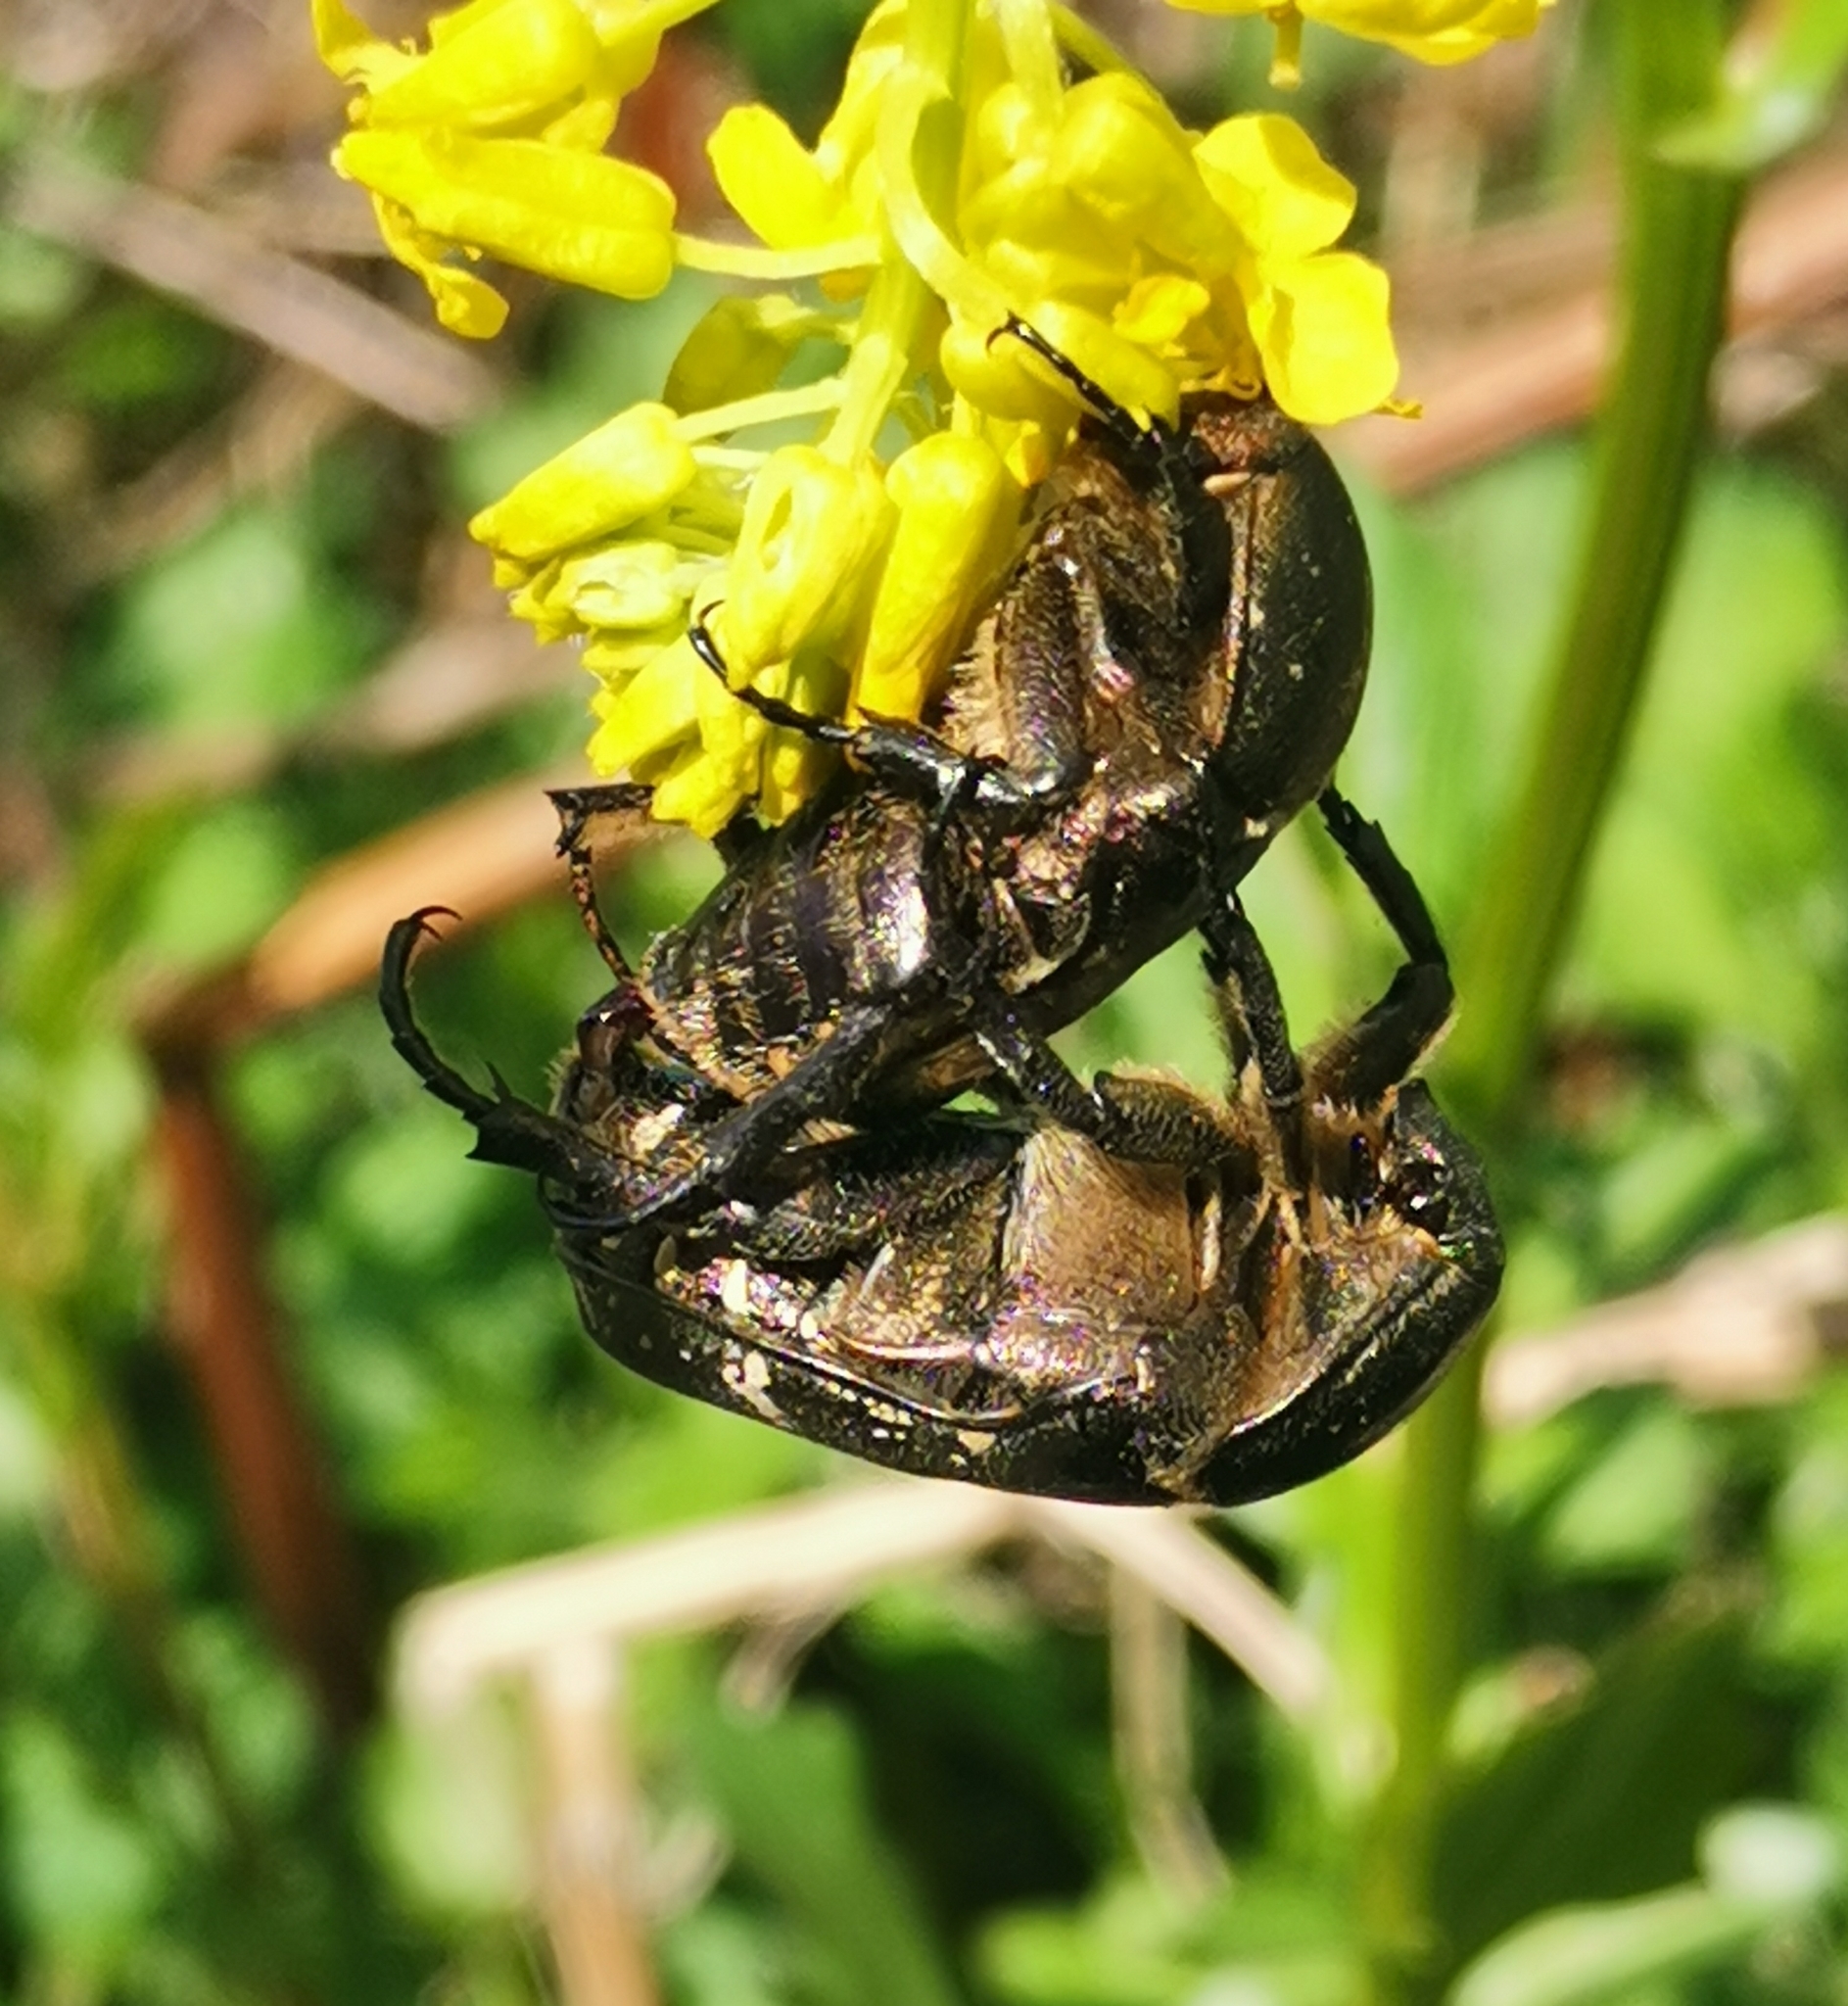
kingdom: Animalia
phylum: Arthropoda
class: Insecta
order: Coleoptera
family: Scarabaeidae
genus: Protaetia
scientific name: Protaetia cuprea
